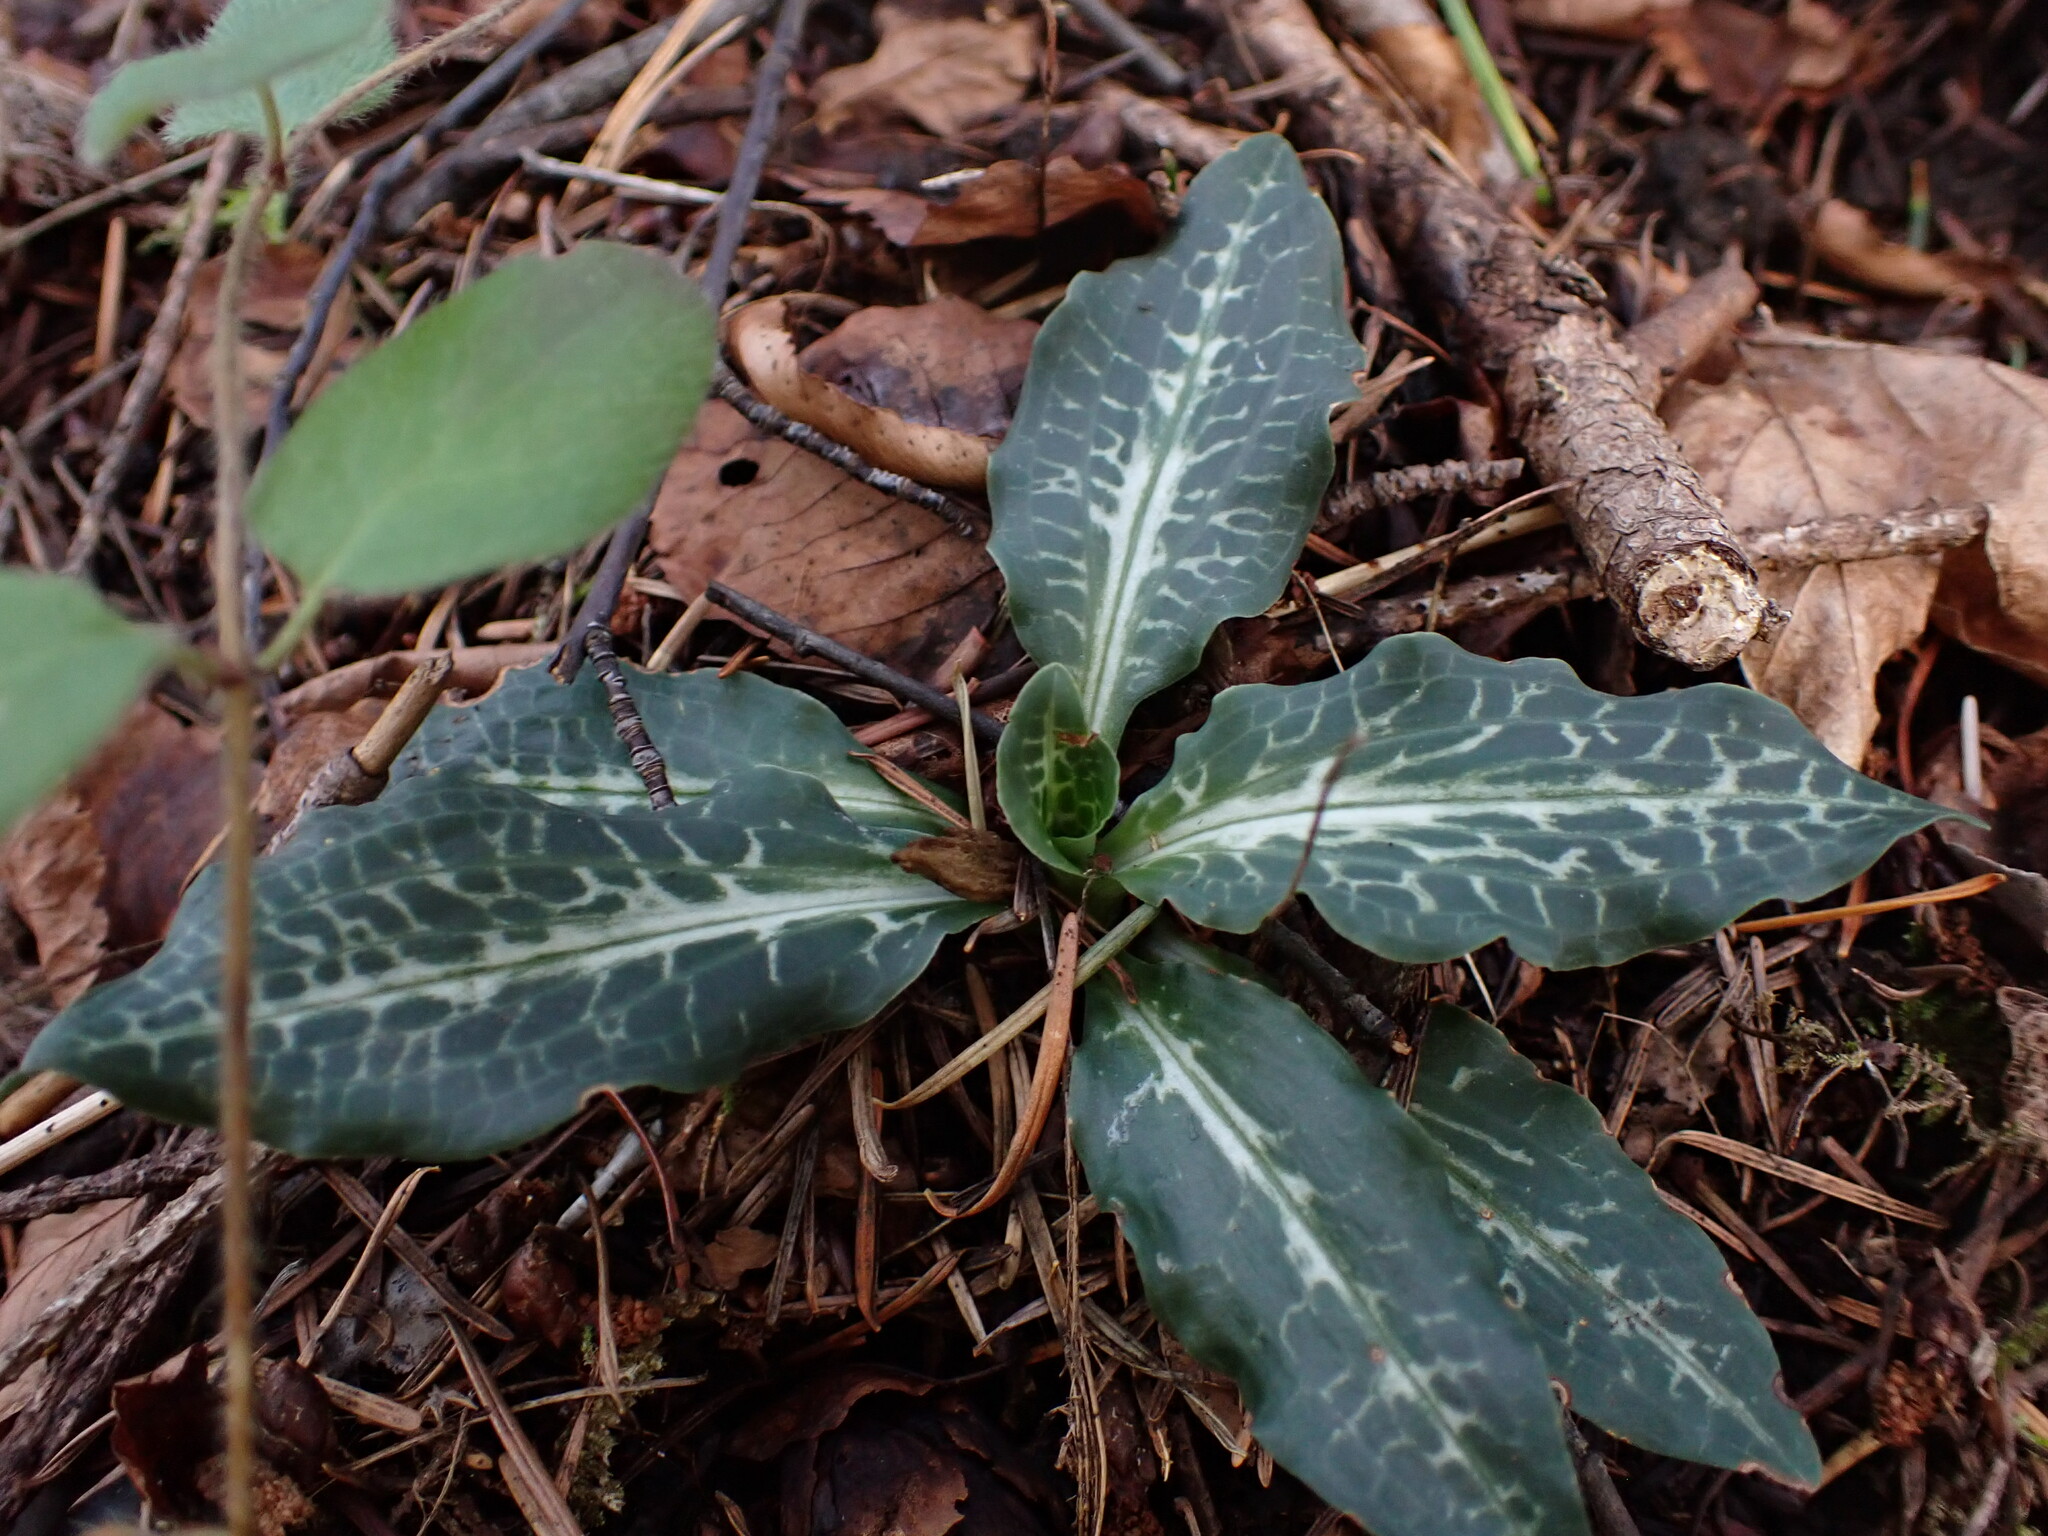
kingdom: Plantae
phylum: Tracheophyta
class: Liliopsida
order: Asparagales
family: Orchidaceae
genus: Goodyera
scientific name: Goodyera oblongifolia
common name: Giant rattlesnake-plantain
